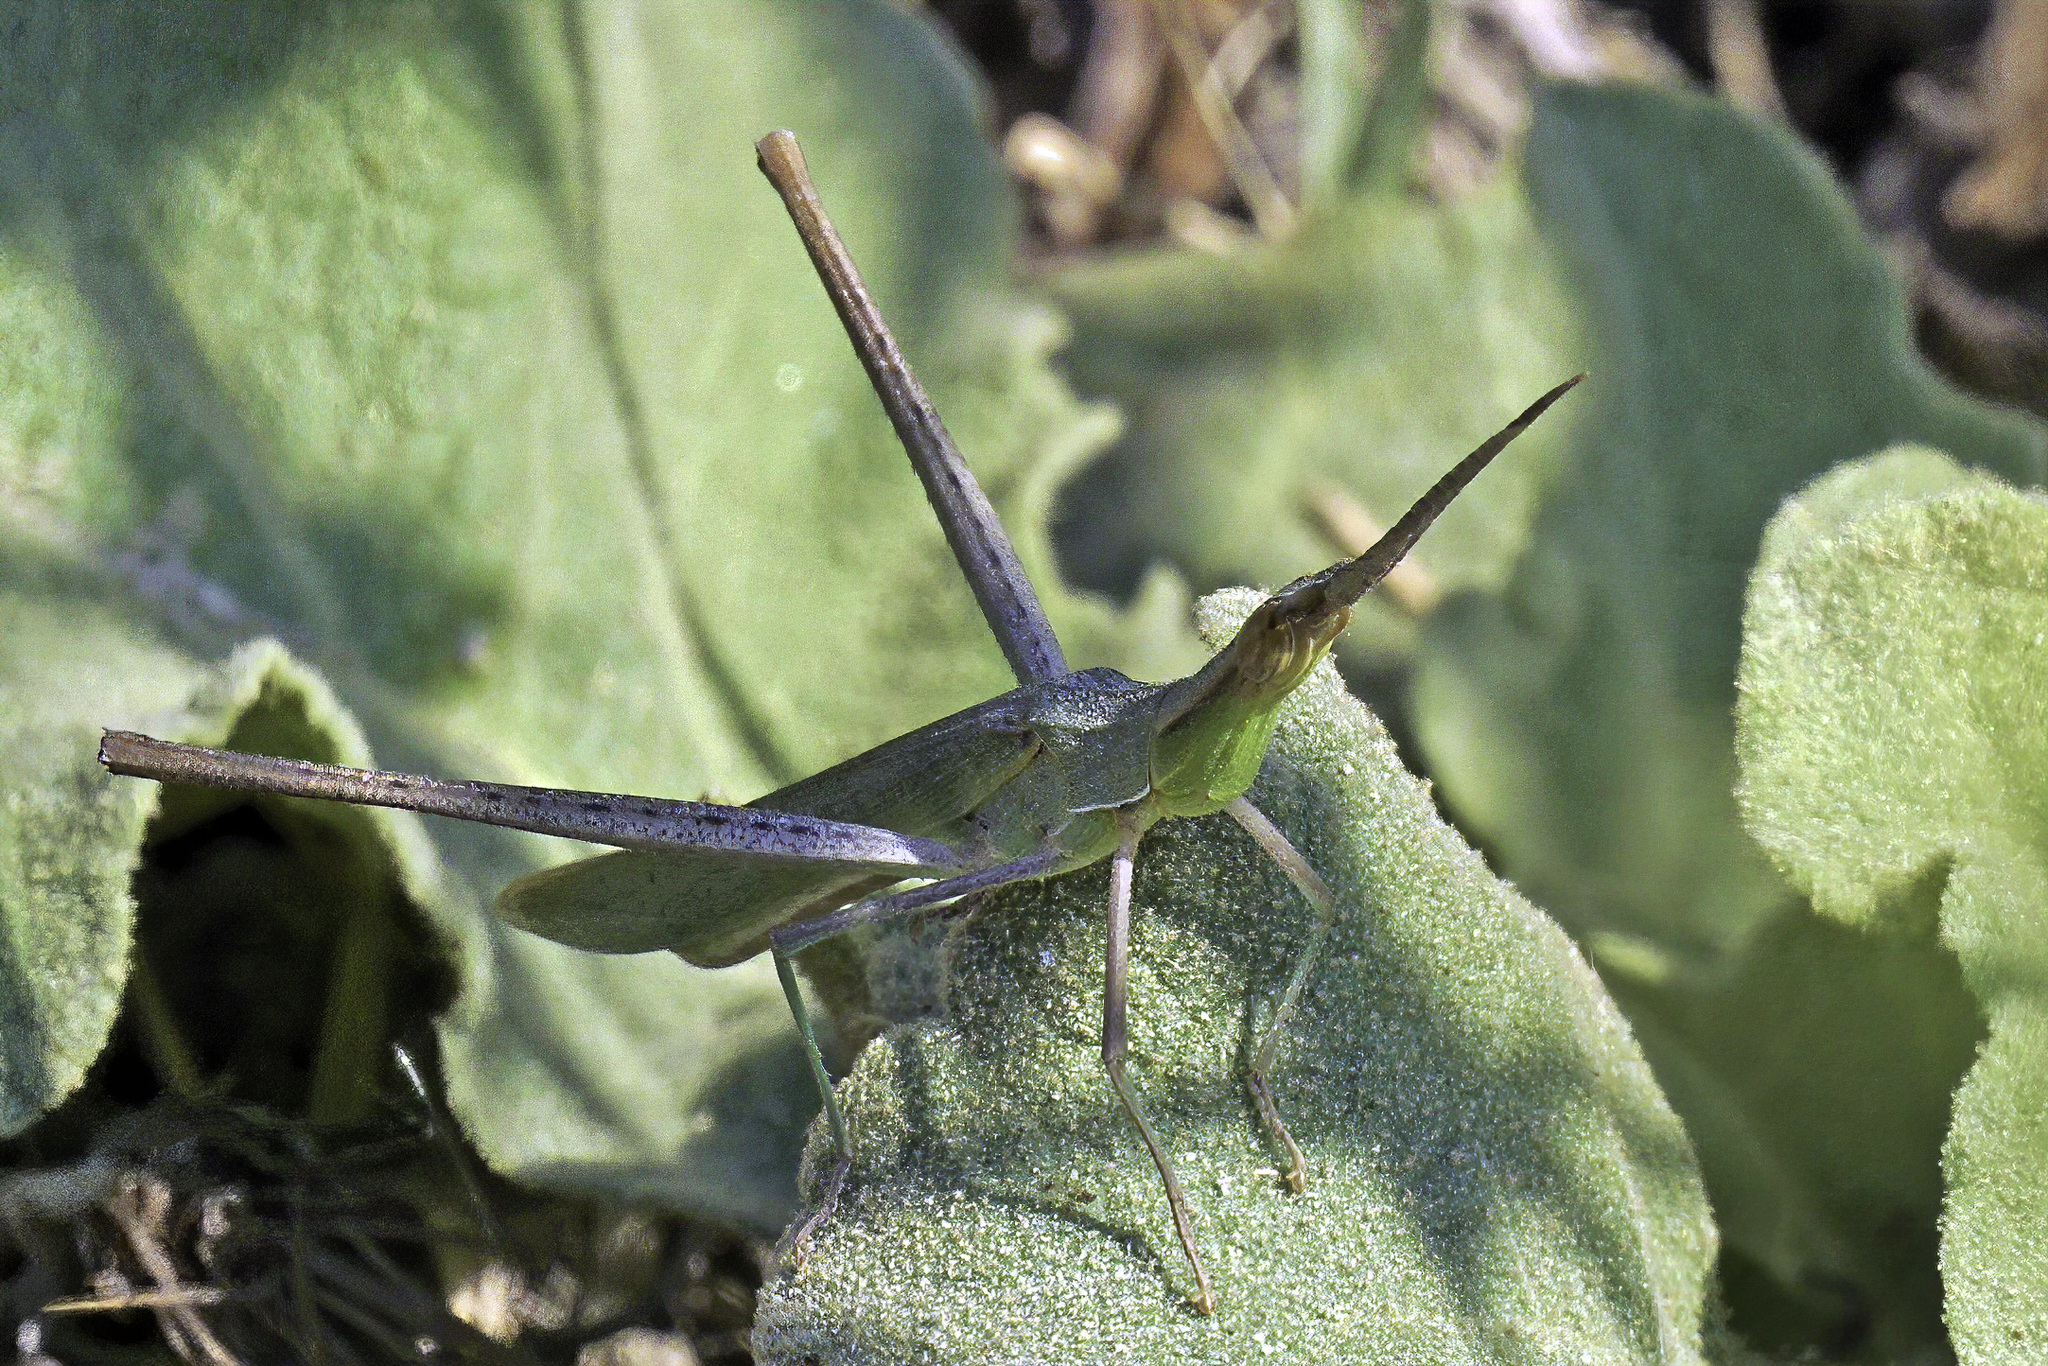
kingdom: Animalia
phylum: Arthropoda
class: Insecta
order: Orthoptera
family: Acrididae
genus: Acrida
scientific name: Acrida ungarica
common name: Common cone-headed grasshopper
